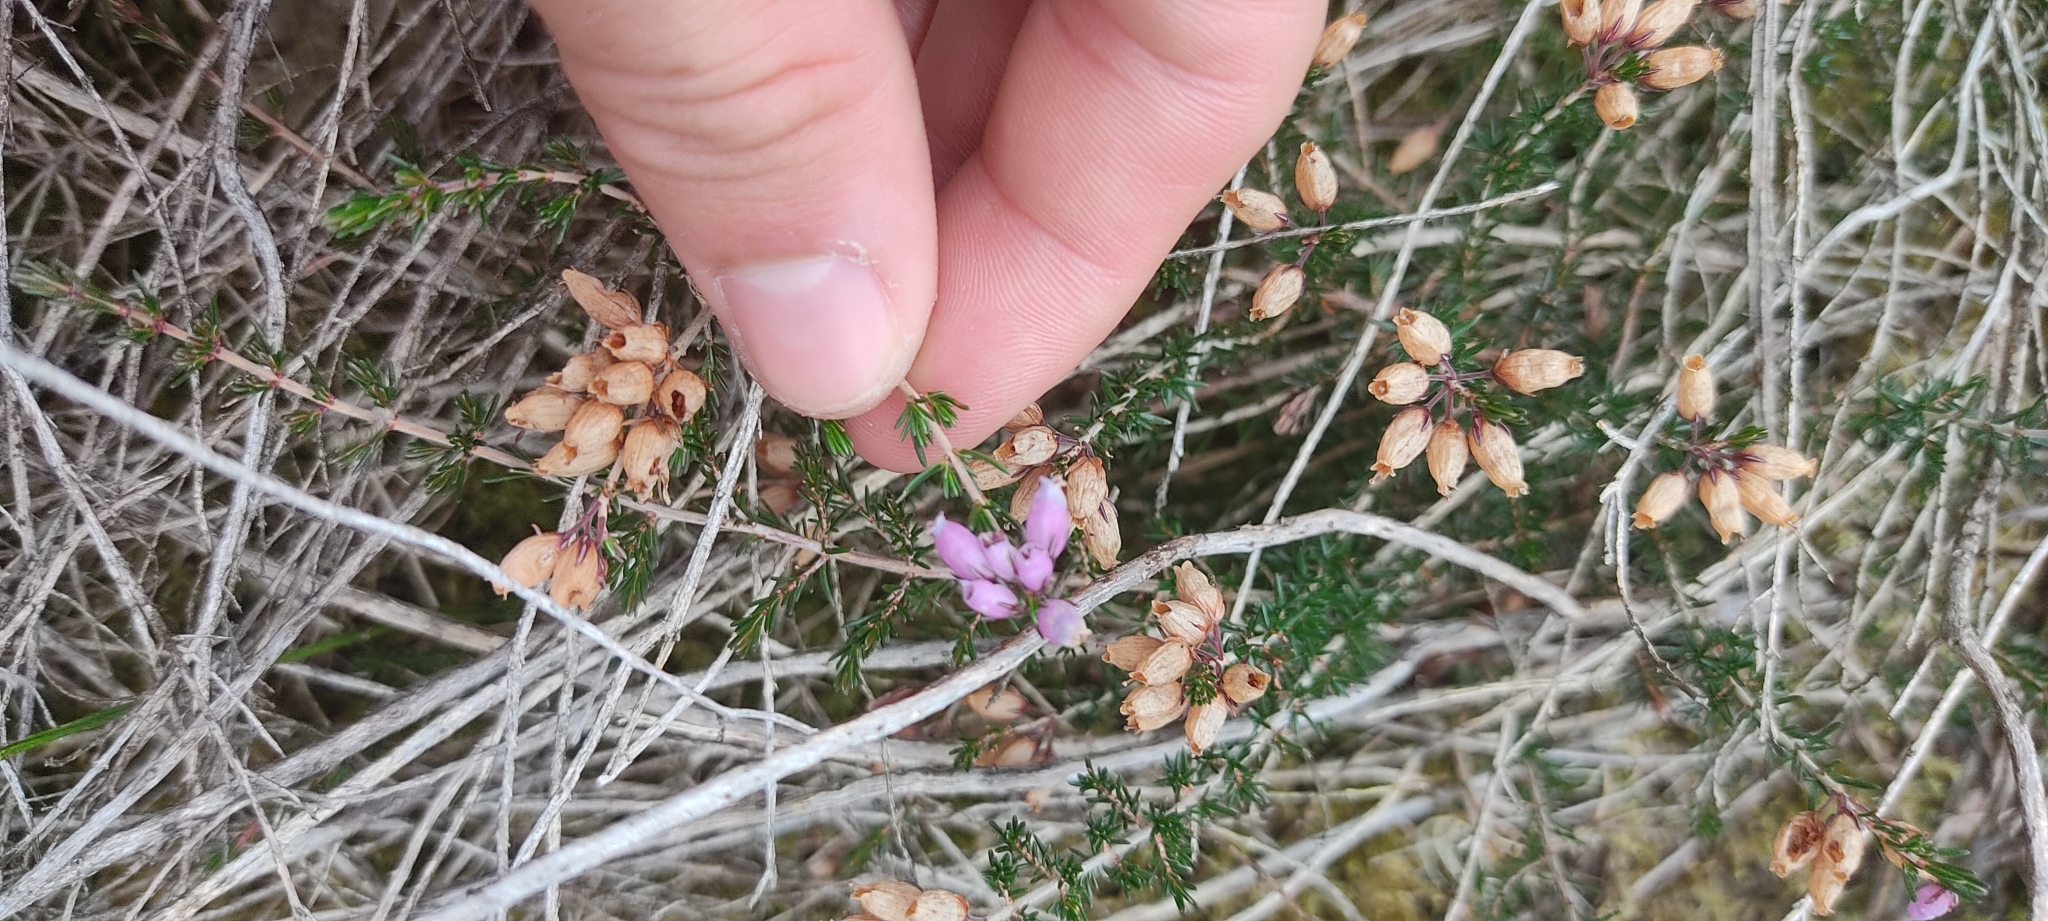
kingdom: Plantae
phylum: Tracheophyta
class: Magnoliopsida
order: Ericales
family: Ericaceae
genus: Erica
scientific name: Erica cinerea
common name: Bell heather
